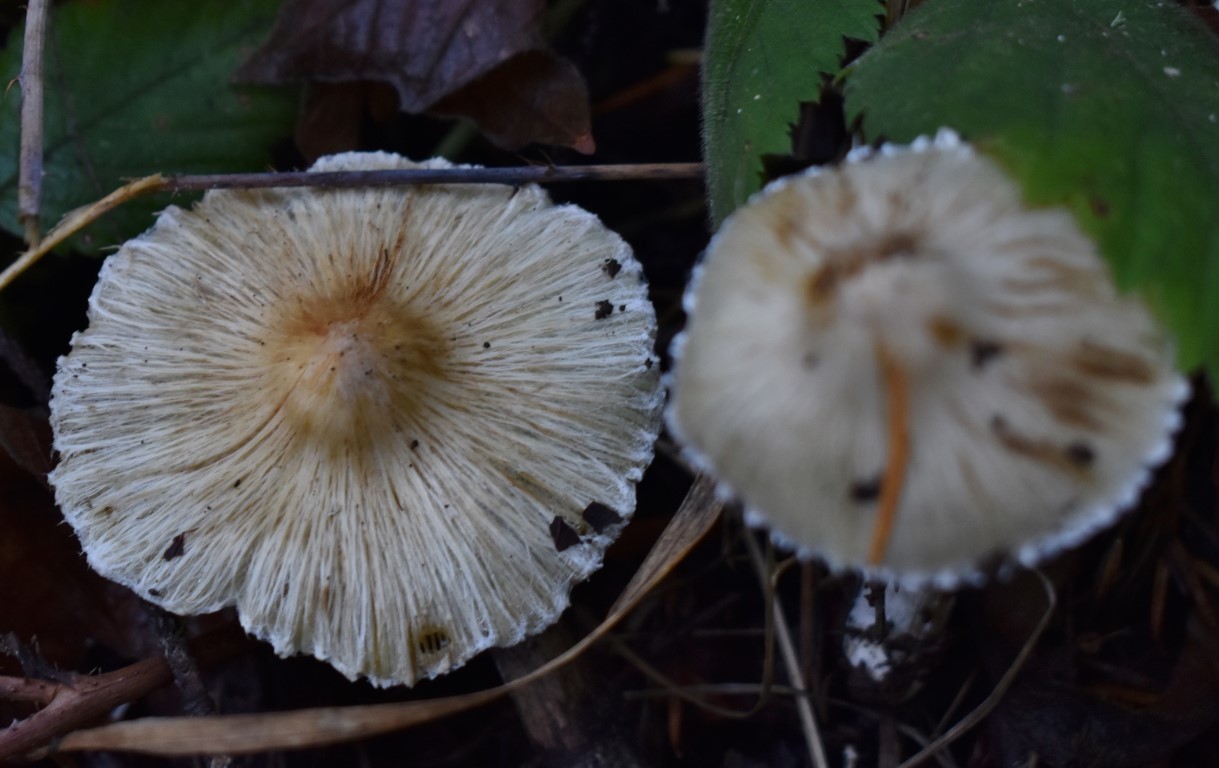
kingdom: Fungi
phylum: Basidiomycota
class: Agaricomycetes
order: Agaricales
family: Inocybaceae
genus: Pseudosperma
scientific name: Pseudosperma sororium
